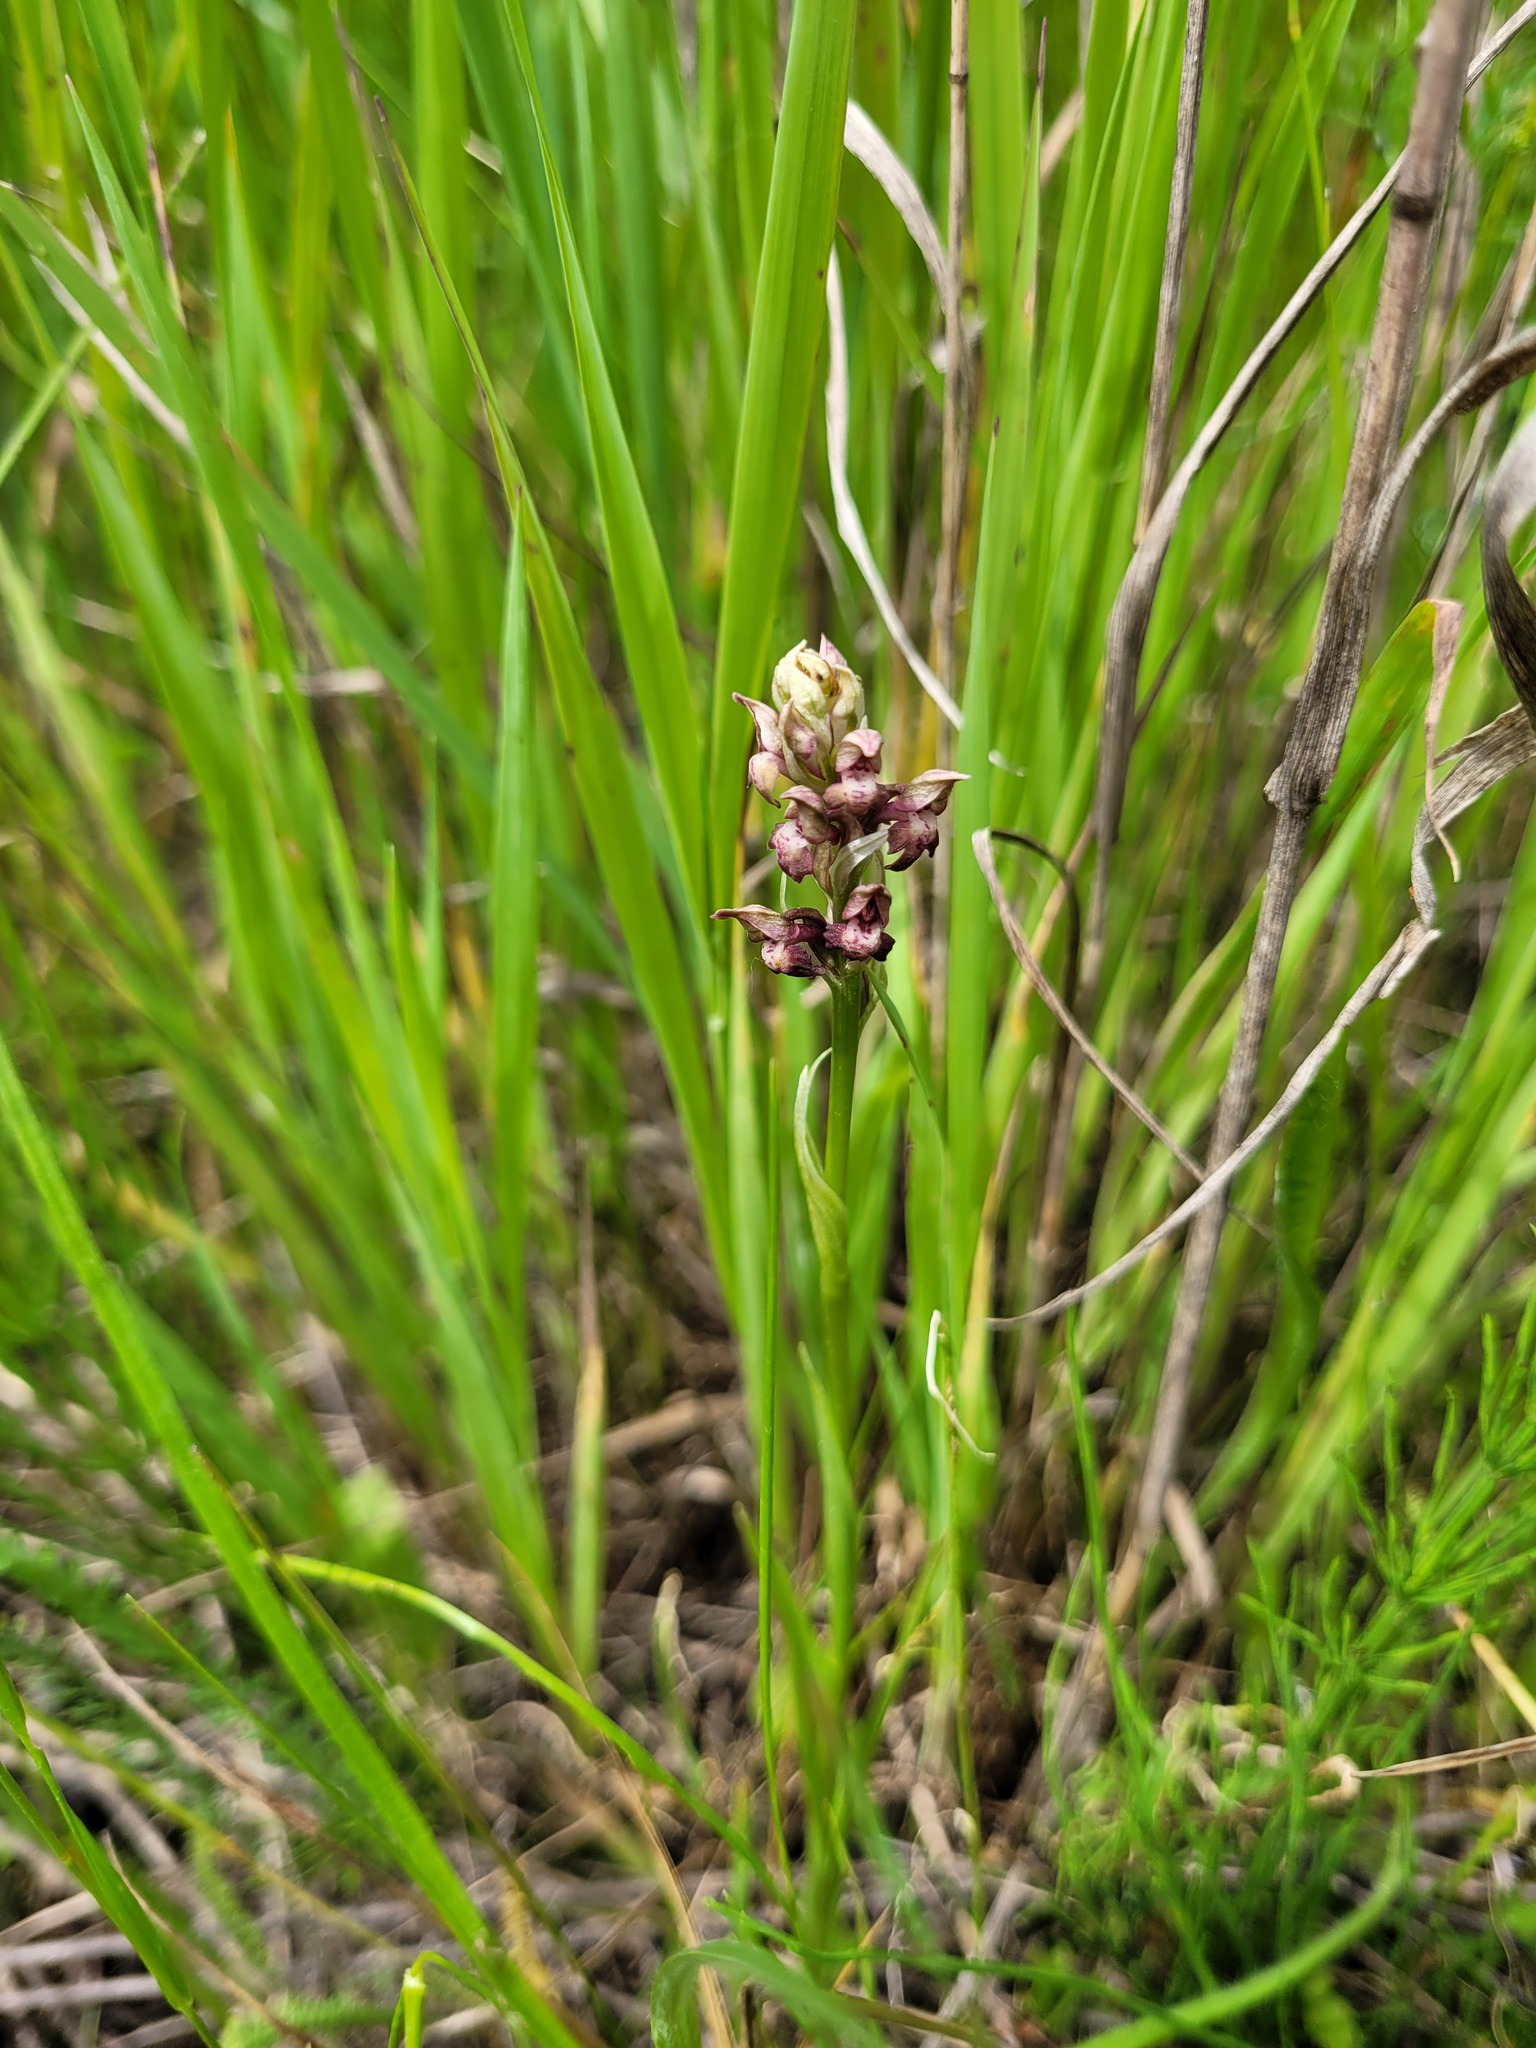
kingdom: Plantae
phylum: Tracheophyta
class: Liliopsida
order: Asparagales
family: Orchidaceae
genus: Anacamptis
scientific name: Anacamptis coriophora
